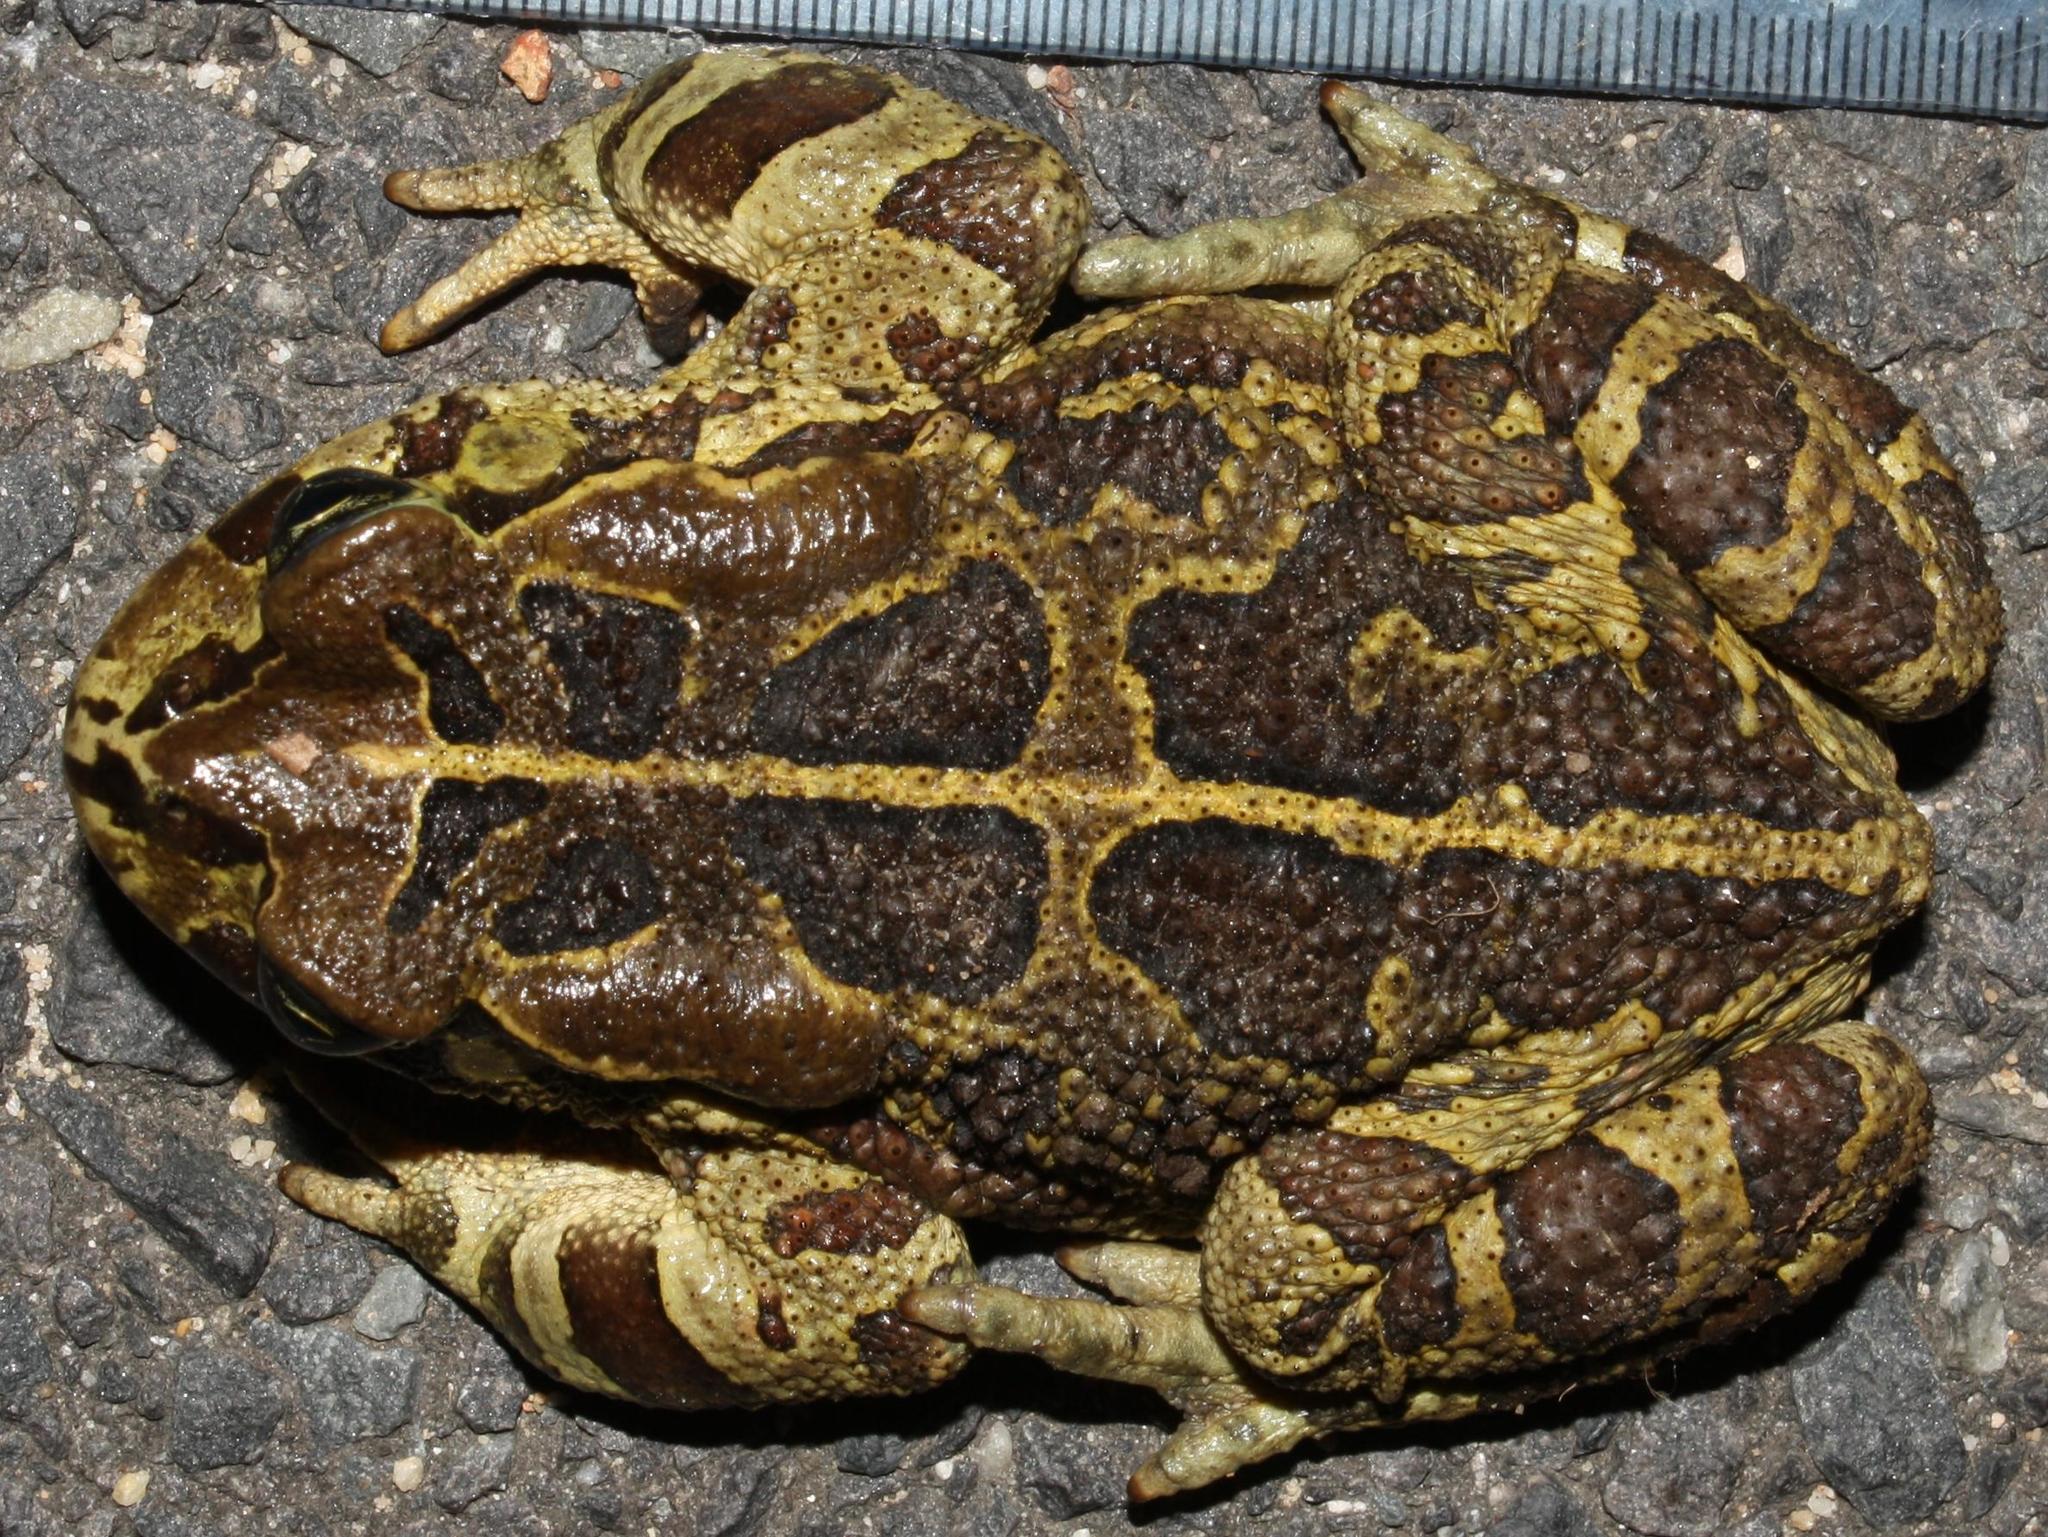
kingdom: Animalia
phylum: Chordata
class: Amphibia
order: Anura
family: Bufonidae
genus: Sclerophrys
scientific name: Sclerophrys pantherina
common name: Panther toad
